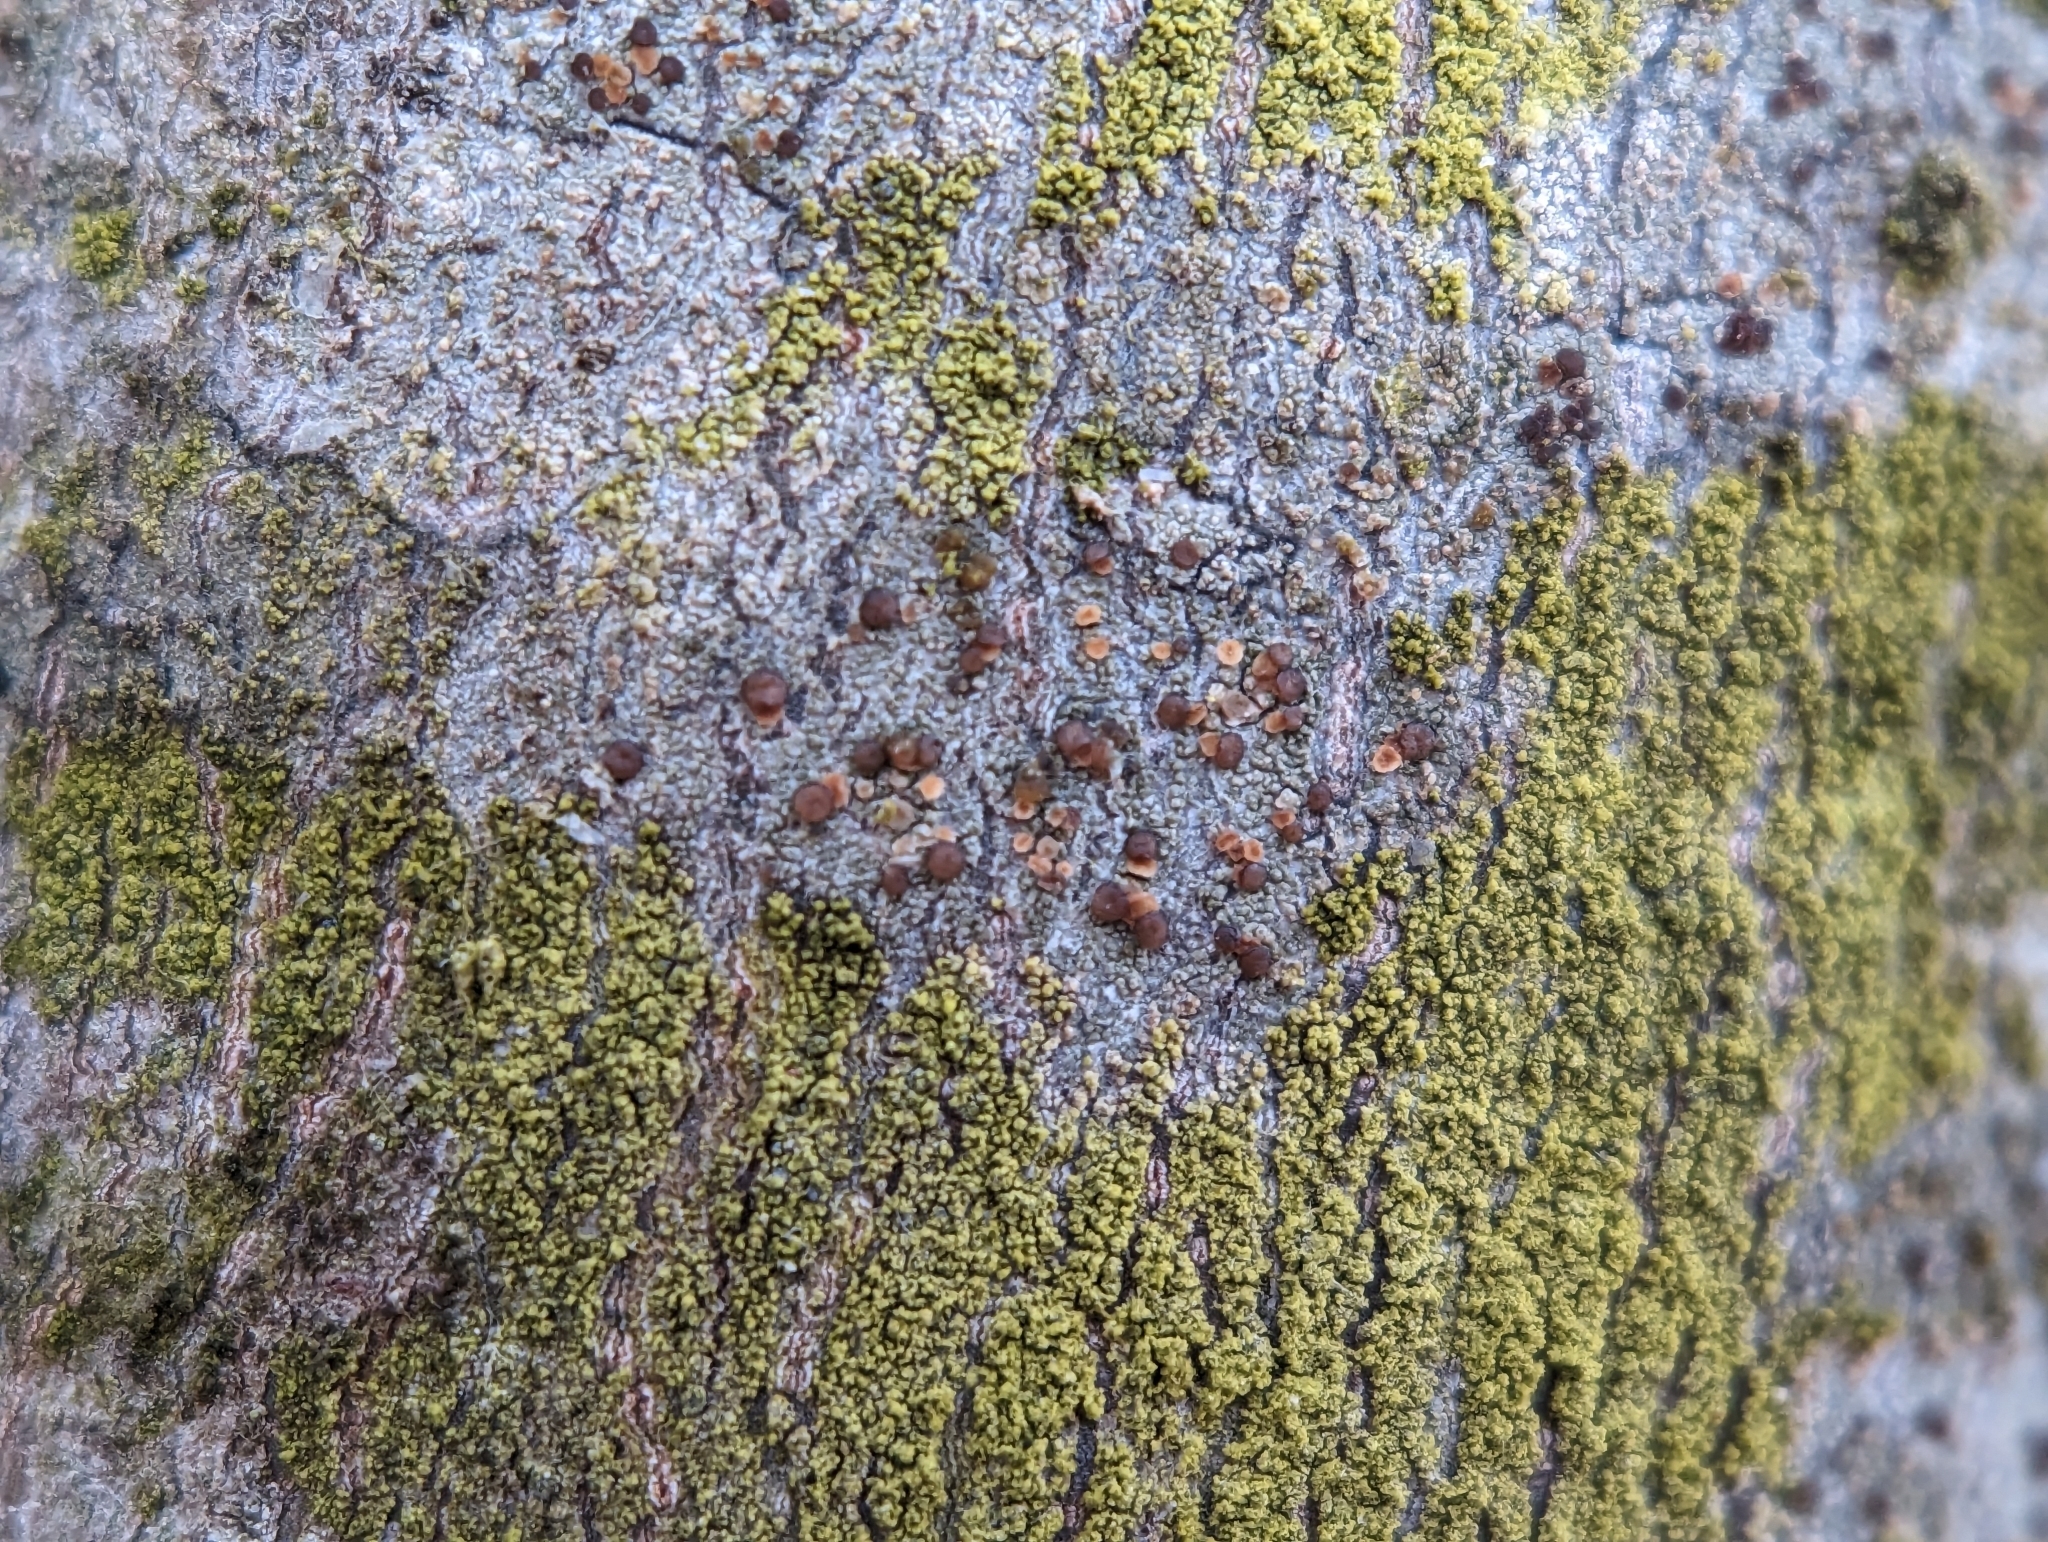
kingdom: Fungi
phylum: Ascomycota
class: Lecanoromycetes
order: Lecanorales
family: Lecanoraceae
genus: Traponora
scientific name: Traponora varians
